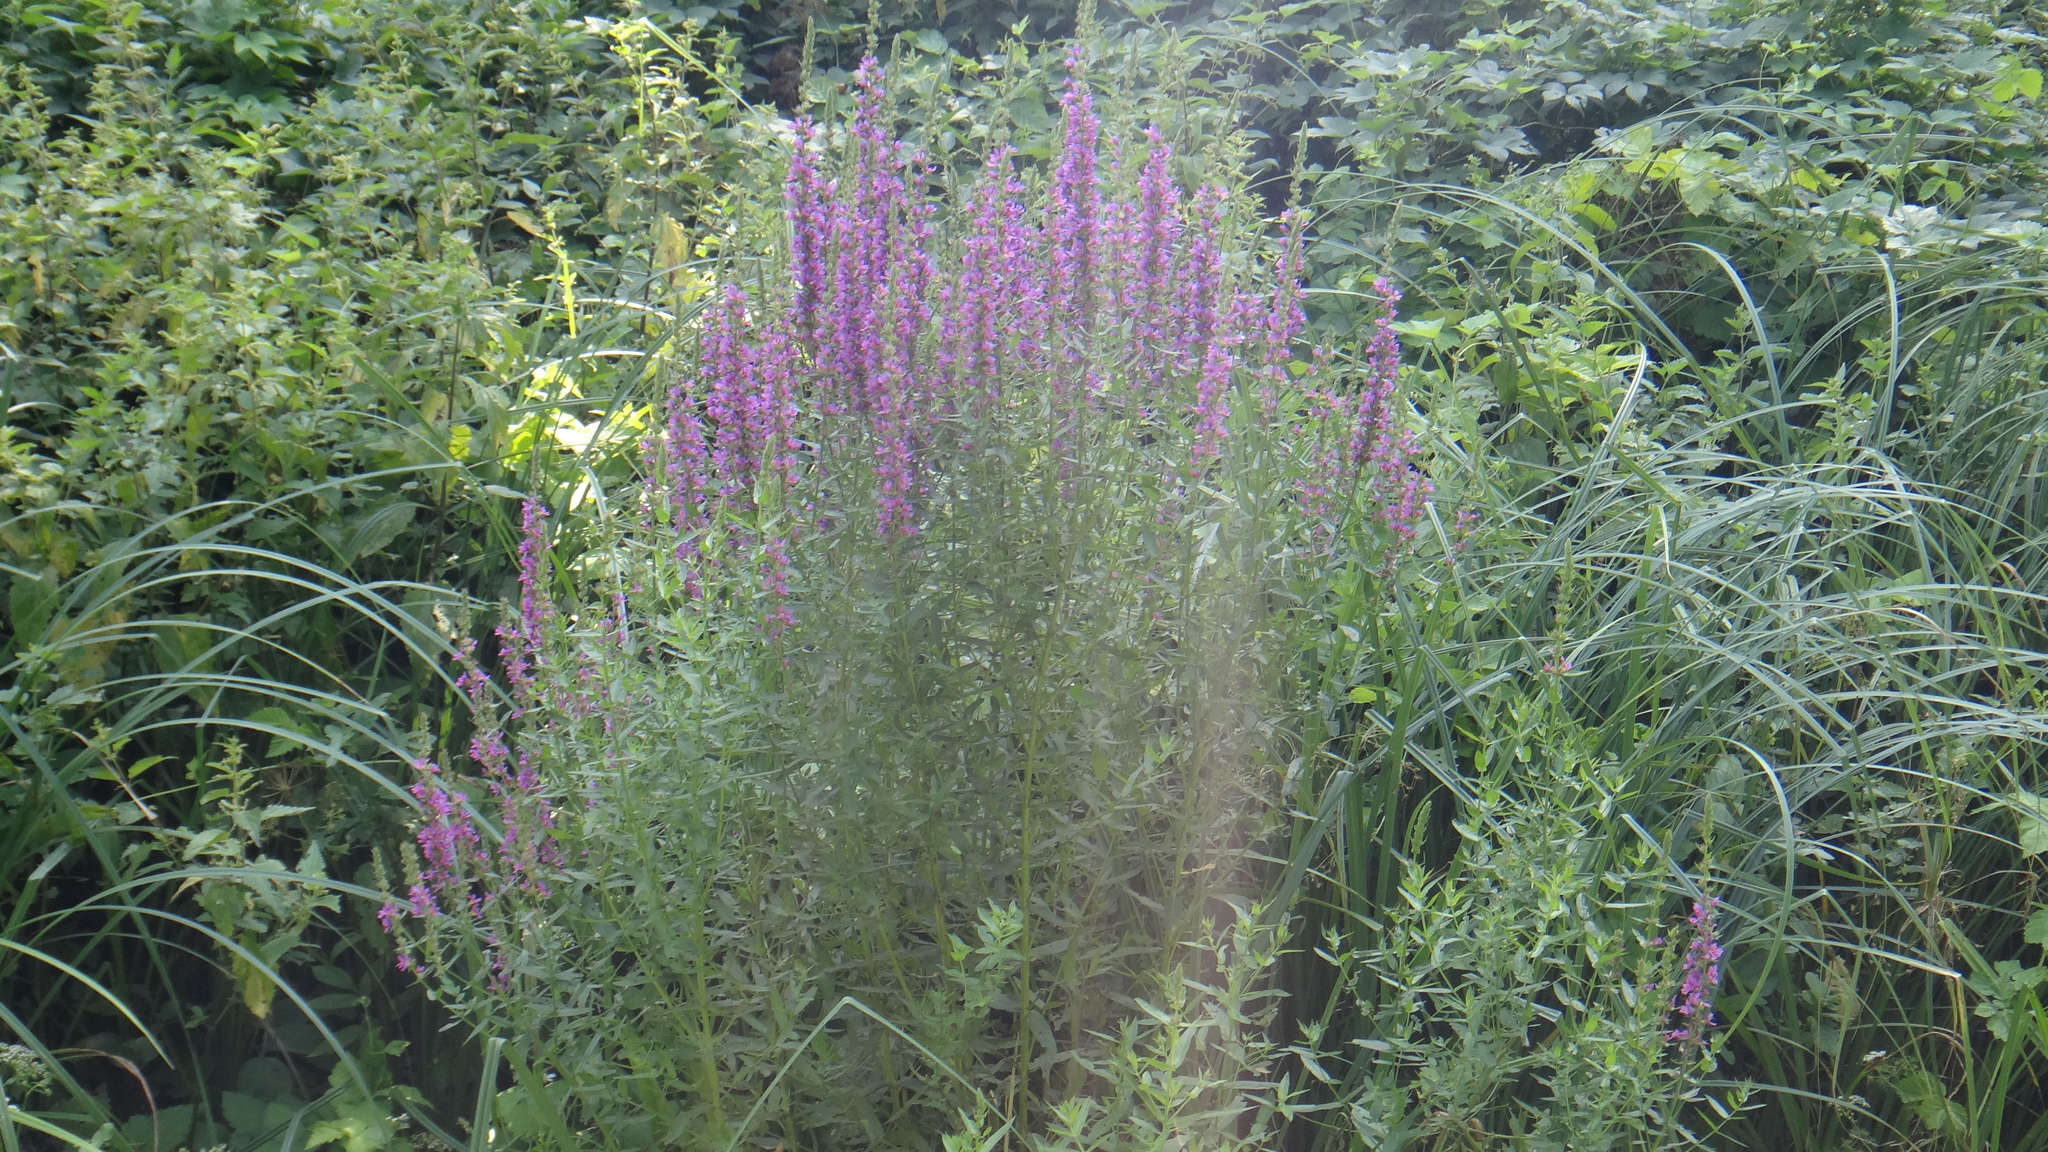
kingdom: Plantae
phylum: Tracheophyta
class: Magnoliopsida
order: Myrtales
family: Lythraceae
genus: Lythrum
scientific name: Lythrum salicaria
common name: Purple loosestrife
